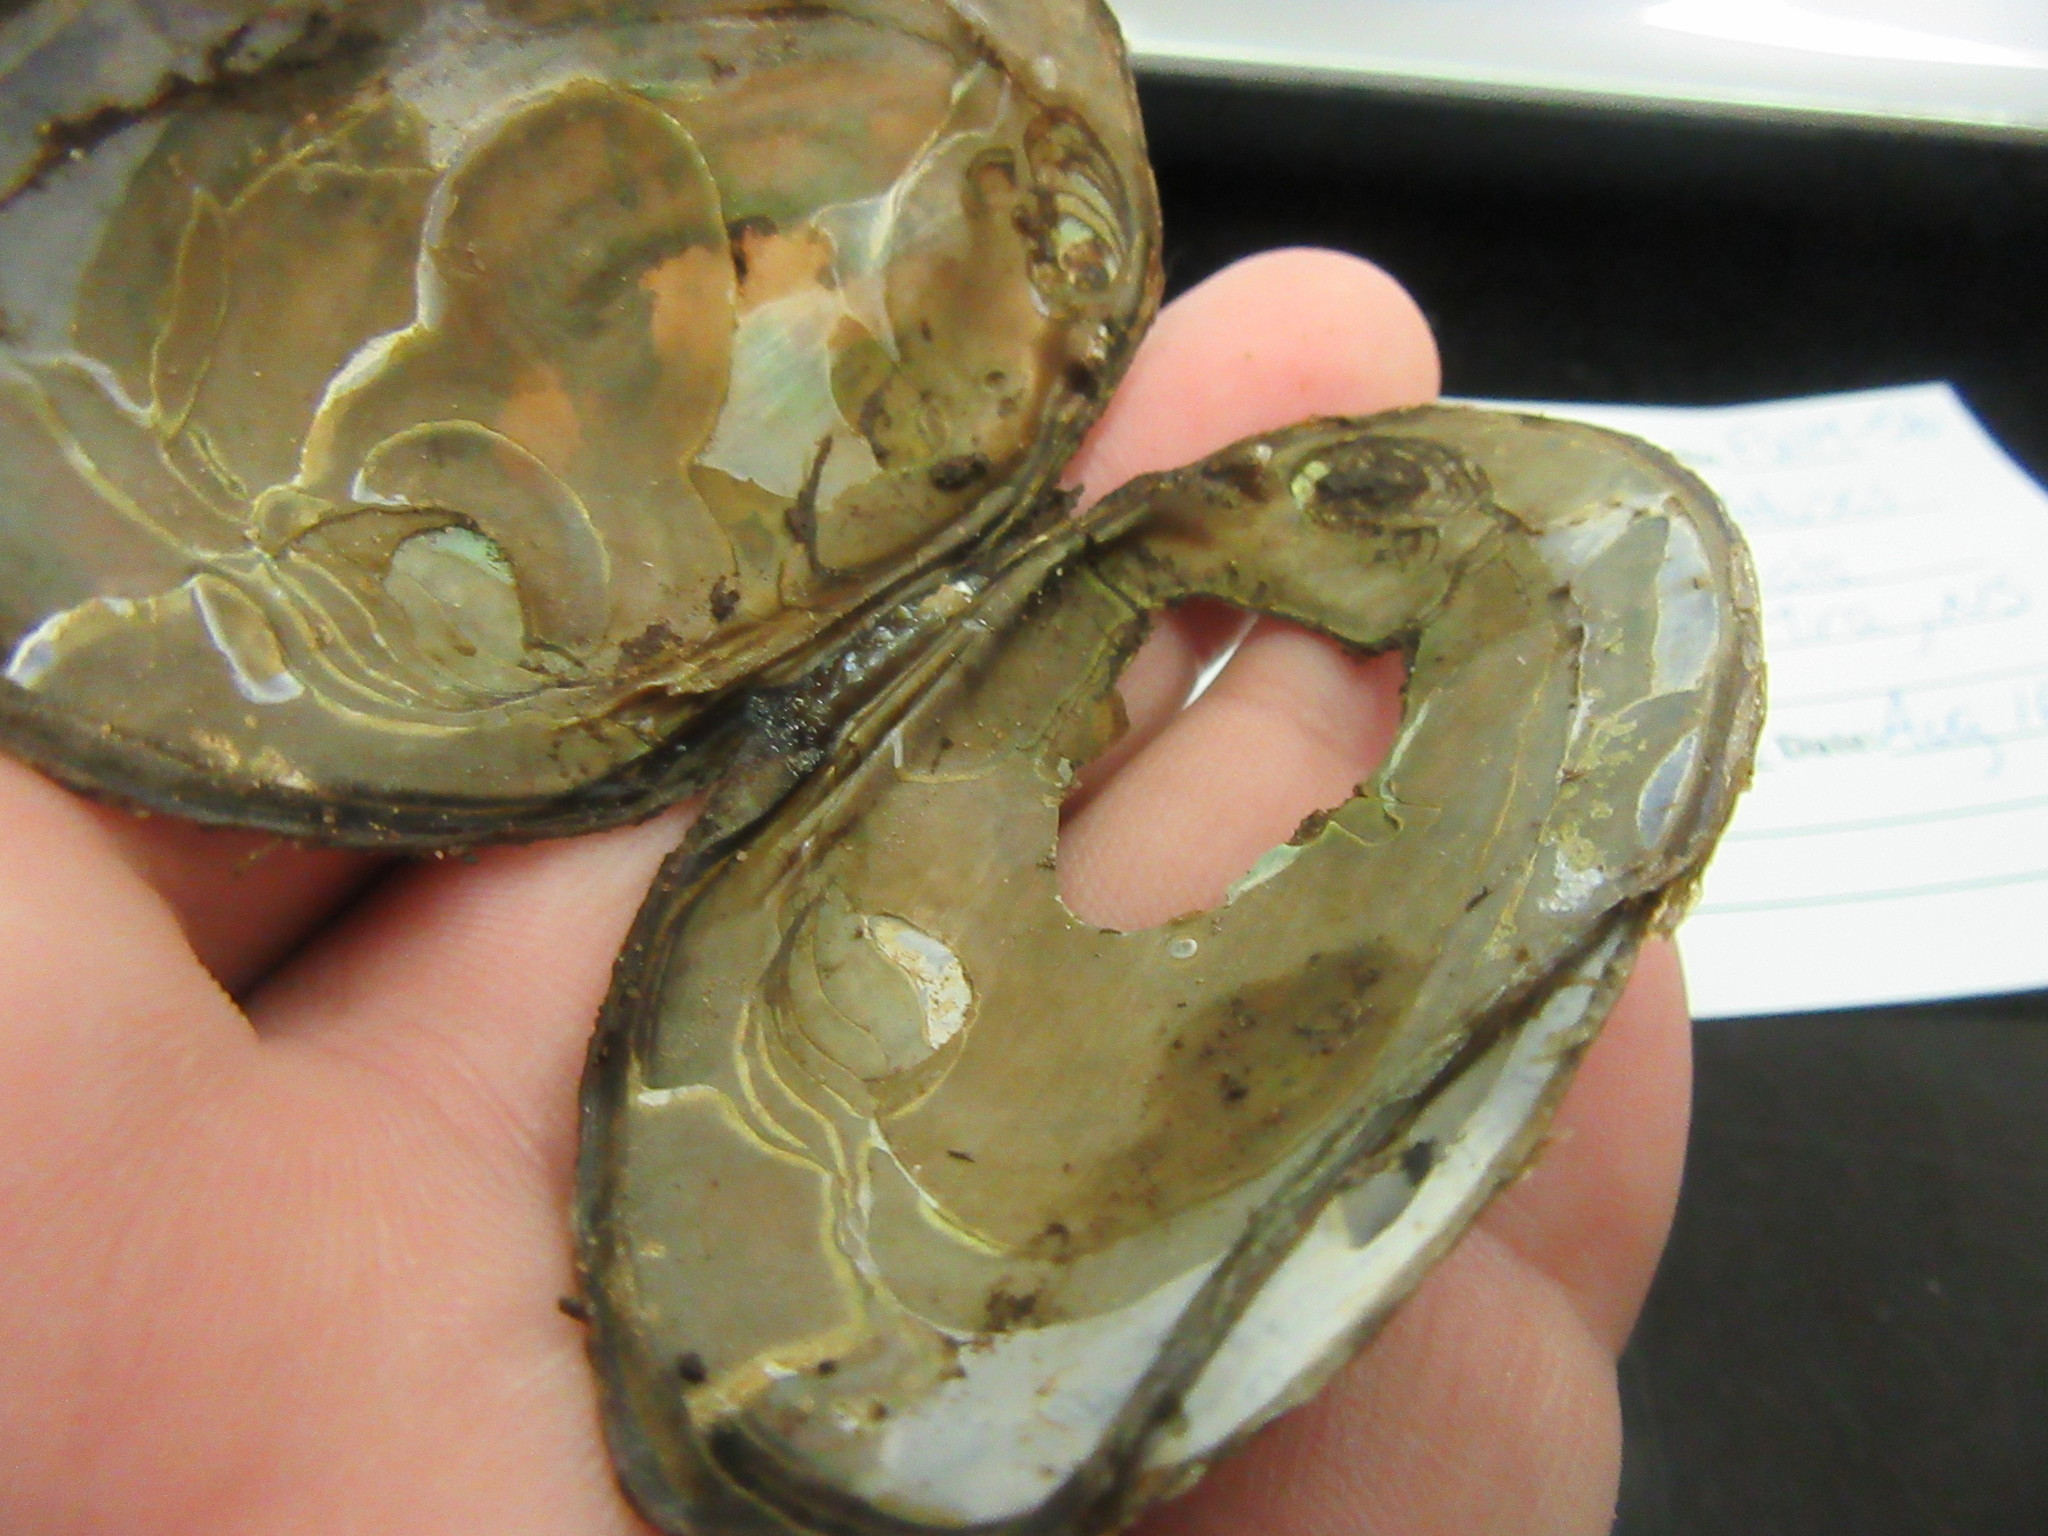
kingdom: Animalia
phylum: Mollusca
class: Bivalvia
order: Unionida
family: Unionidae
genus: Elliptio
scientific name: Elliptio complanata
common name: Eastern elliptio
